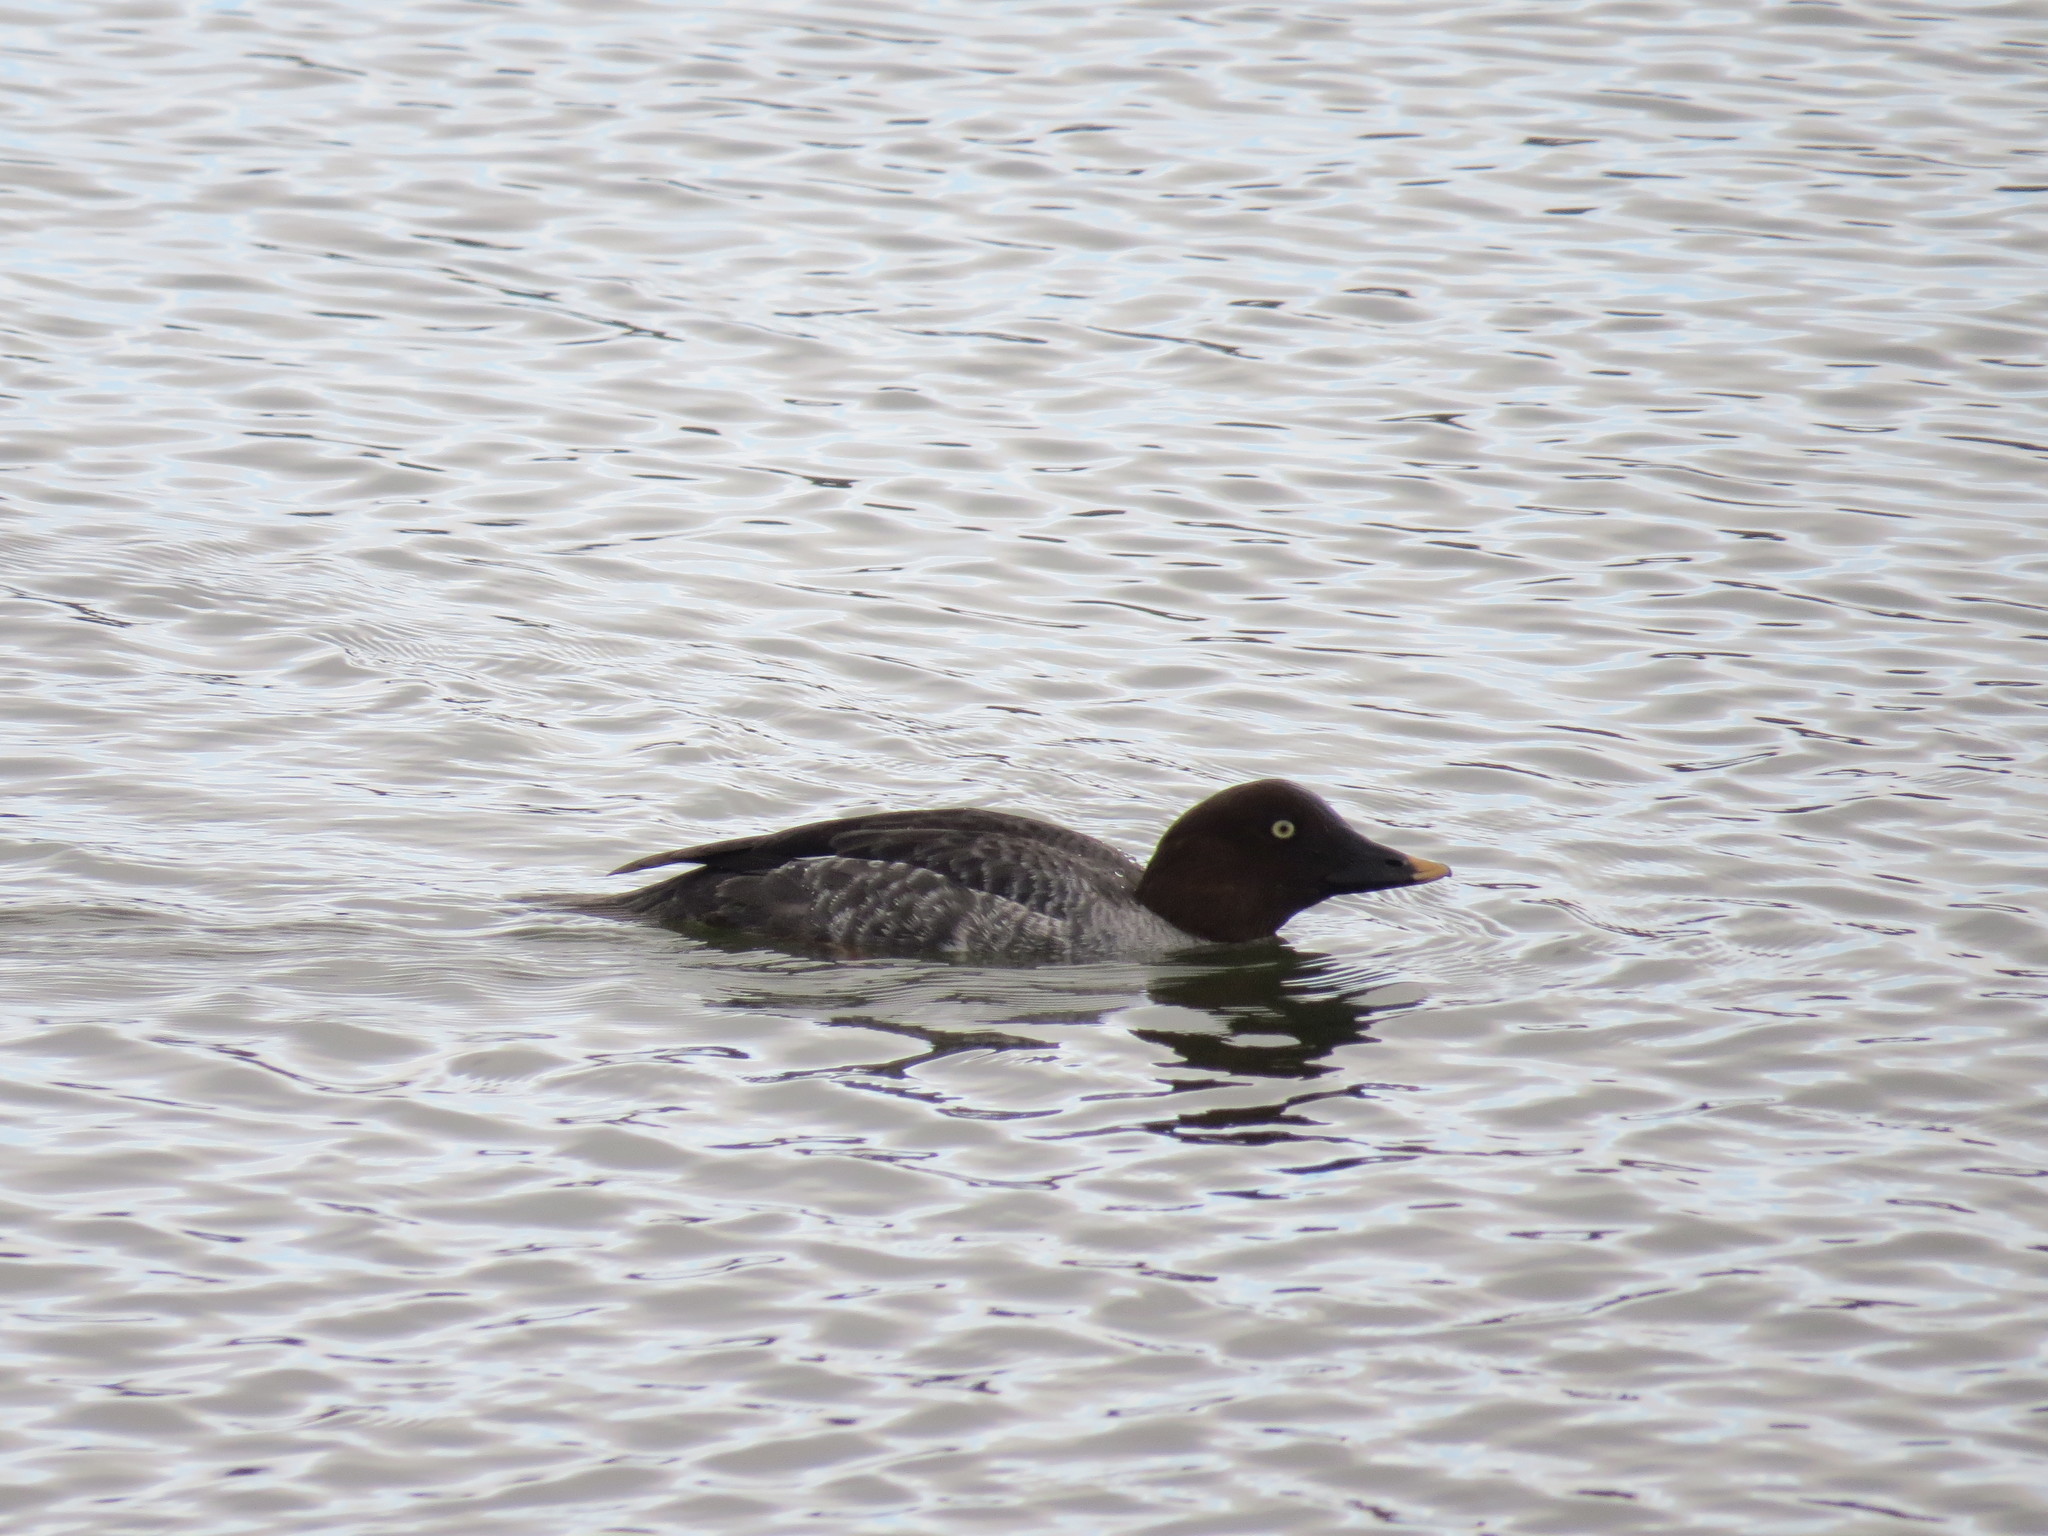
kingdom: Animalia
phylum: Chordata
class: Aves
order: Anseriformes
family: Anatidae
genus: Bucephala
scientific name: Bucephala clangula
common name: Common goldeneye
